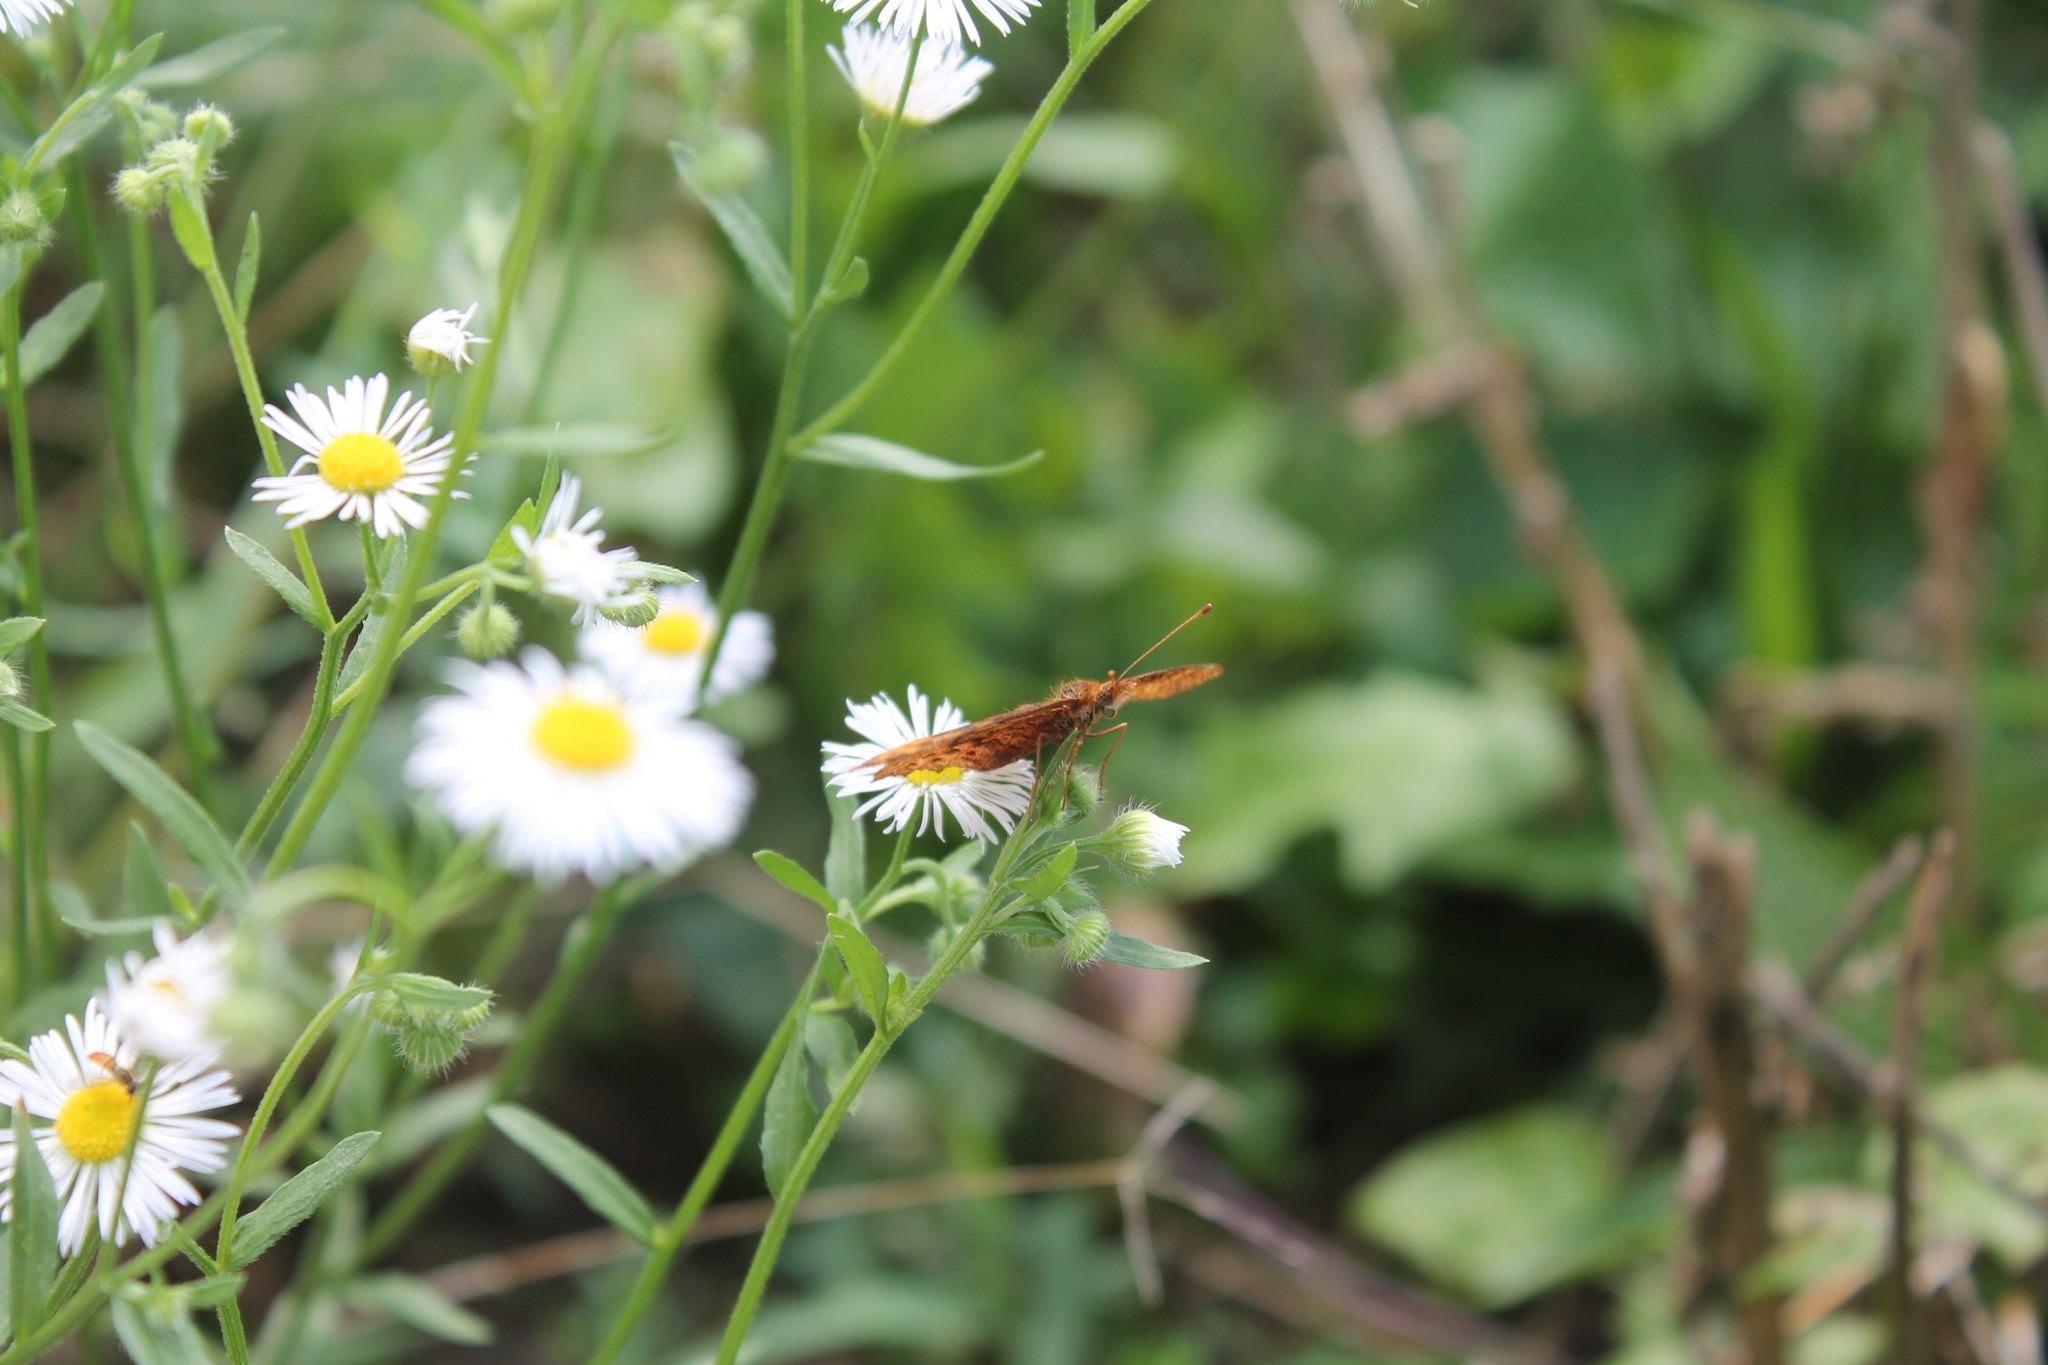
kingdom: Animalia
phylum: Arthropoda
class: Insecta
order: Lepidoptera
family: Nymphalidae
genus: Clossiana
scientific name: Clossiana toddi
